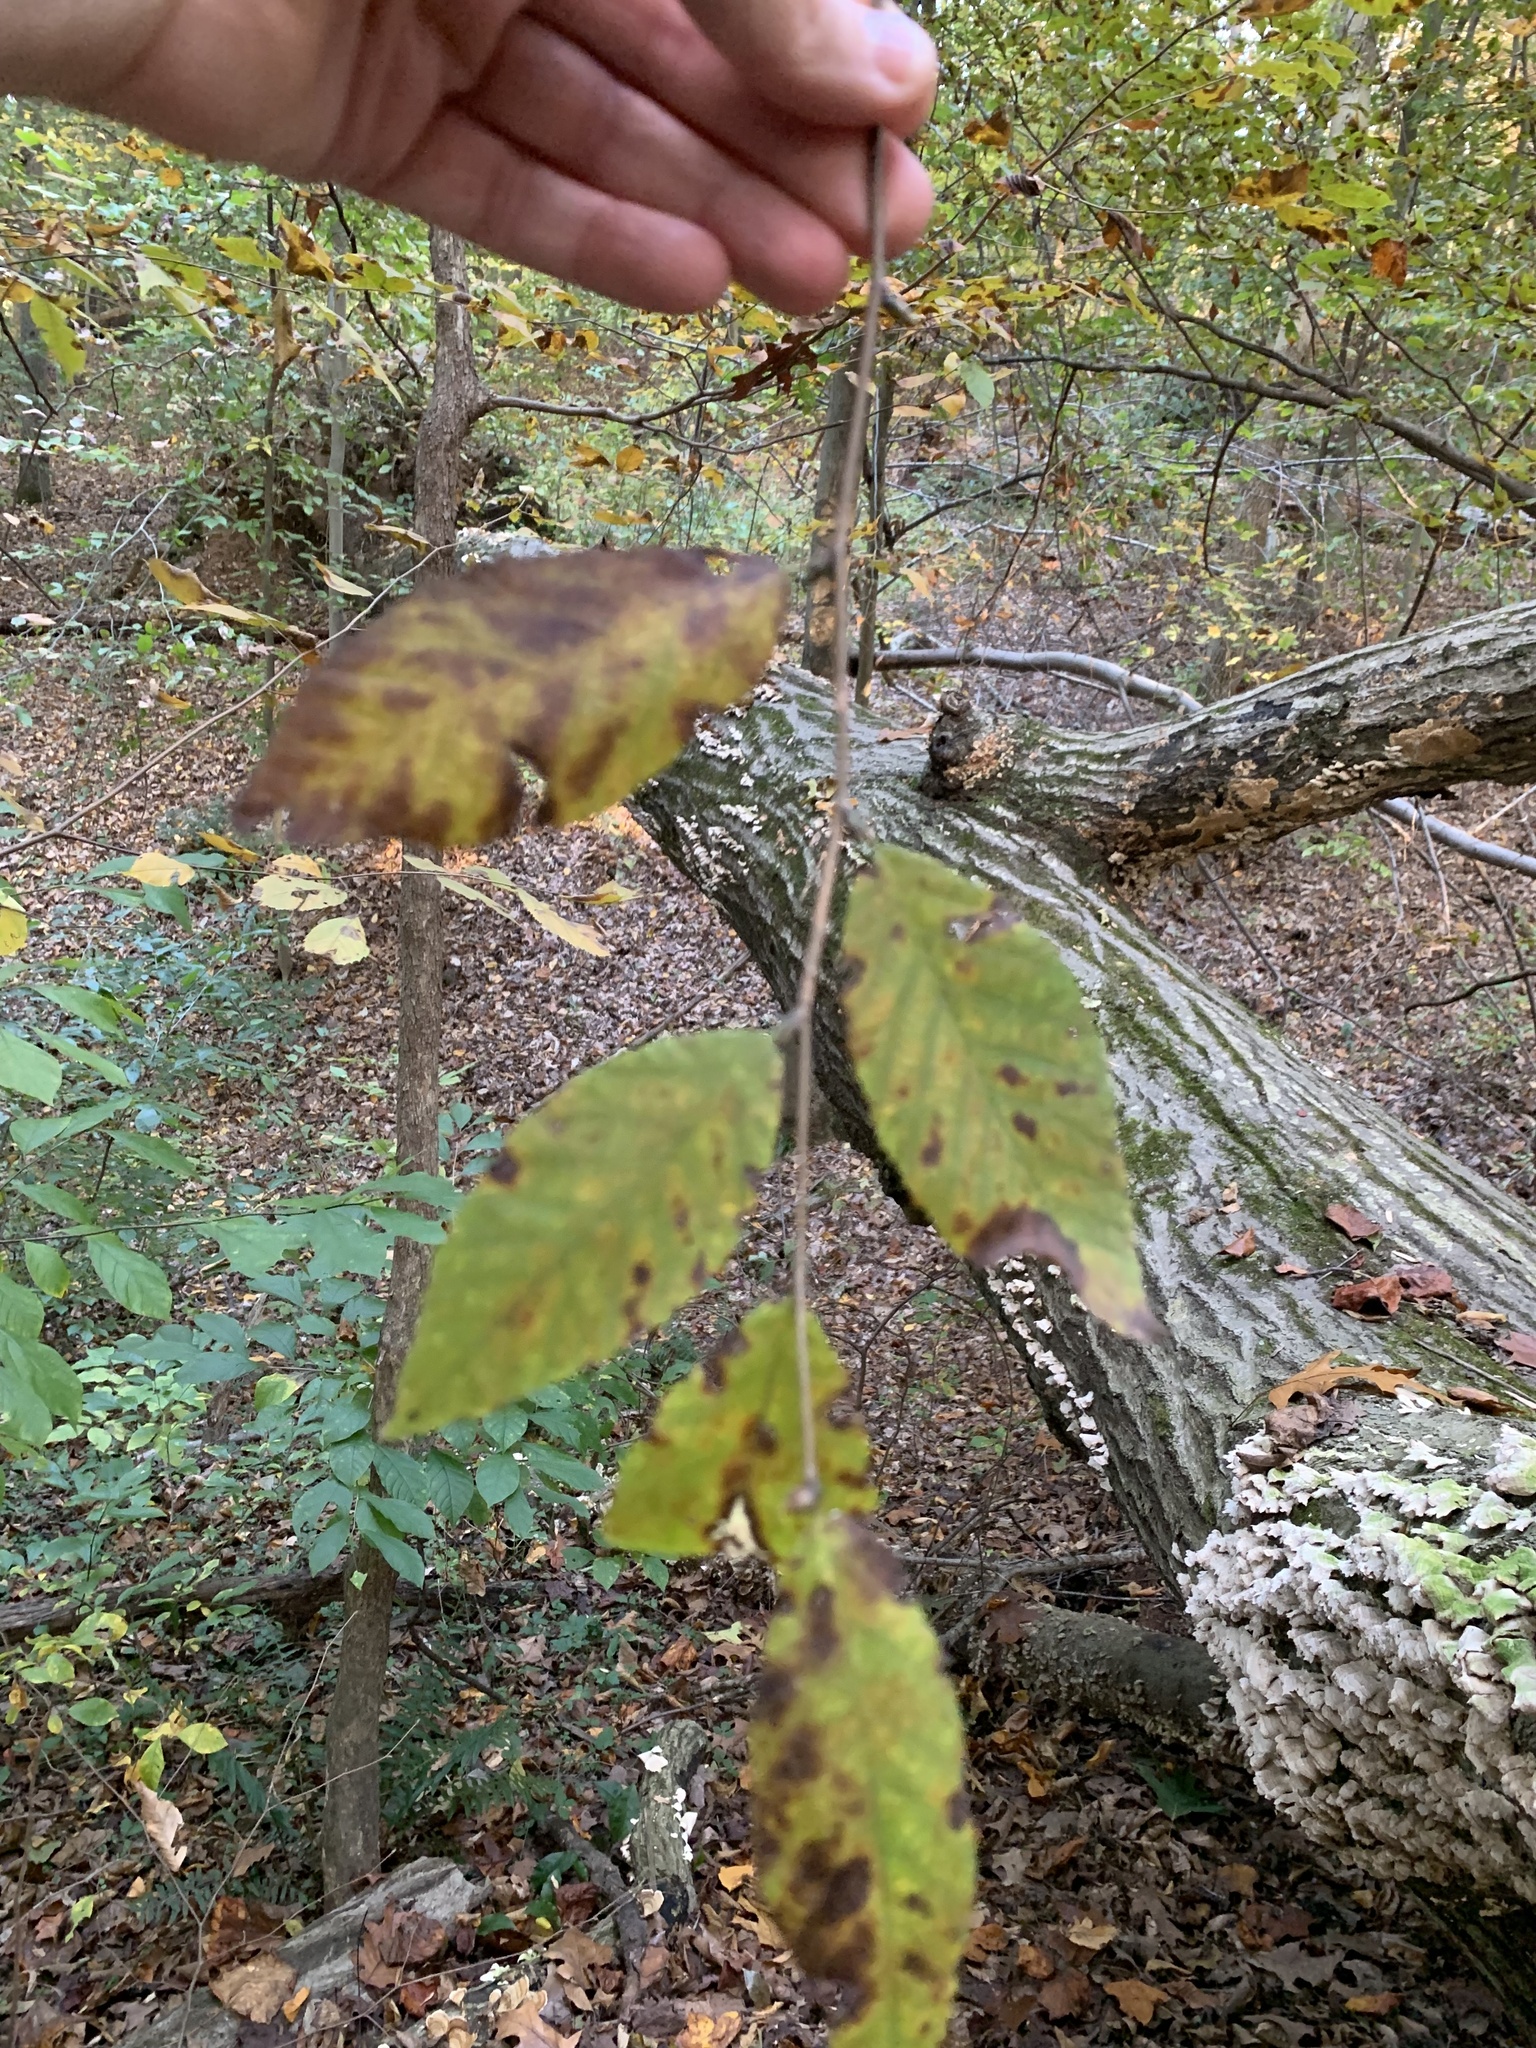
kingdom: Plantae
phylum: Tracheophyta
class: Magnoliopsida
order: Fagales
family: Betulaceae
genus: Ostrya
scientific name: Ostrya virginiana
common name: Ironwood
